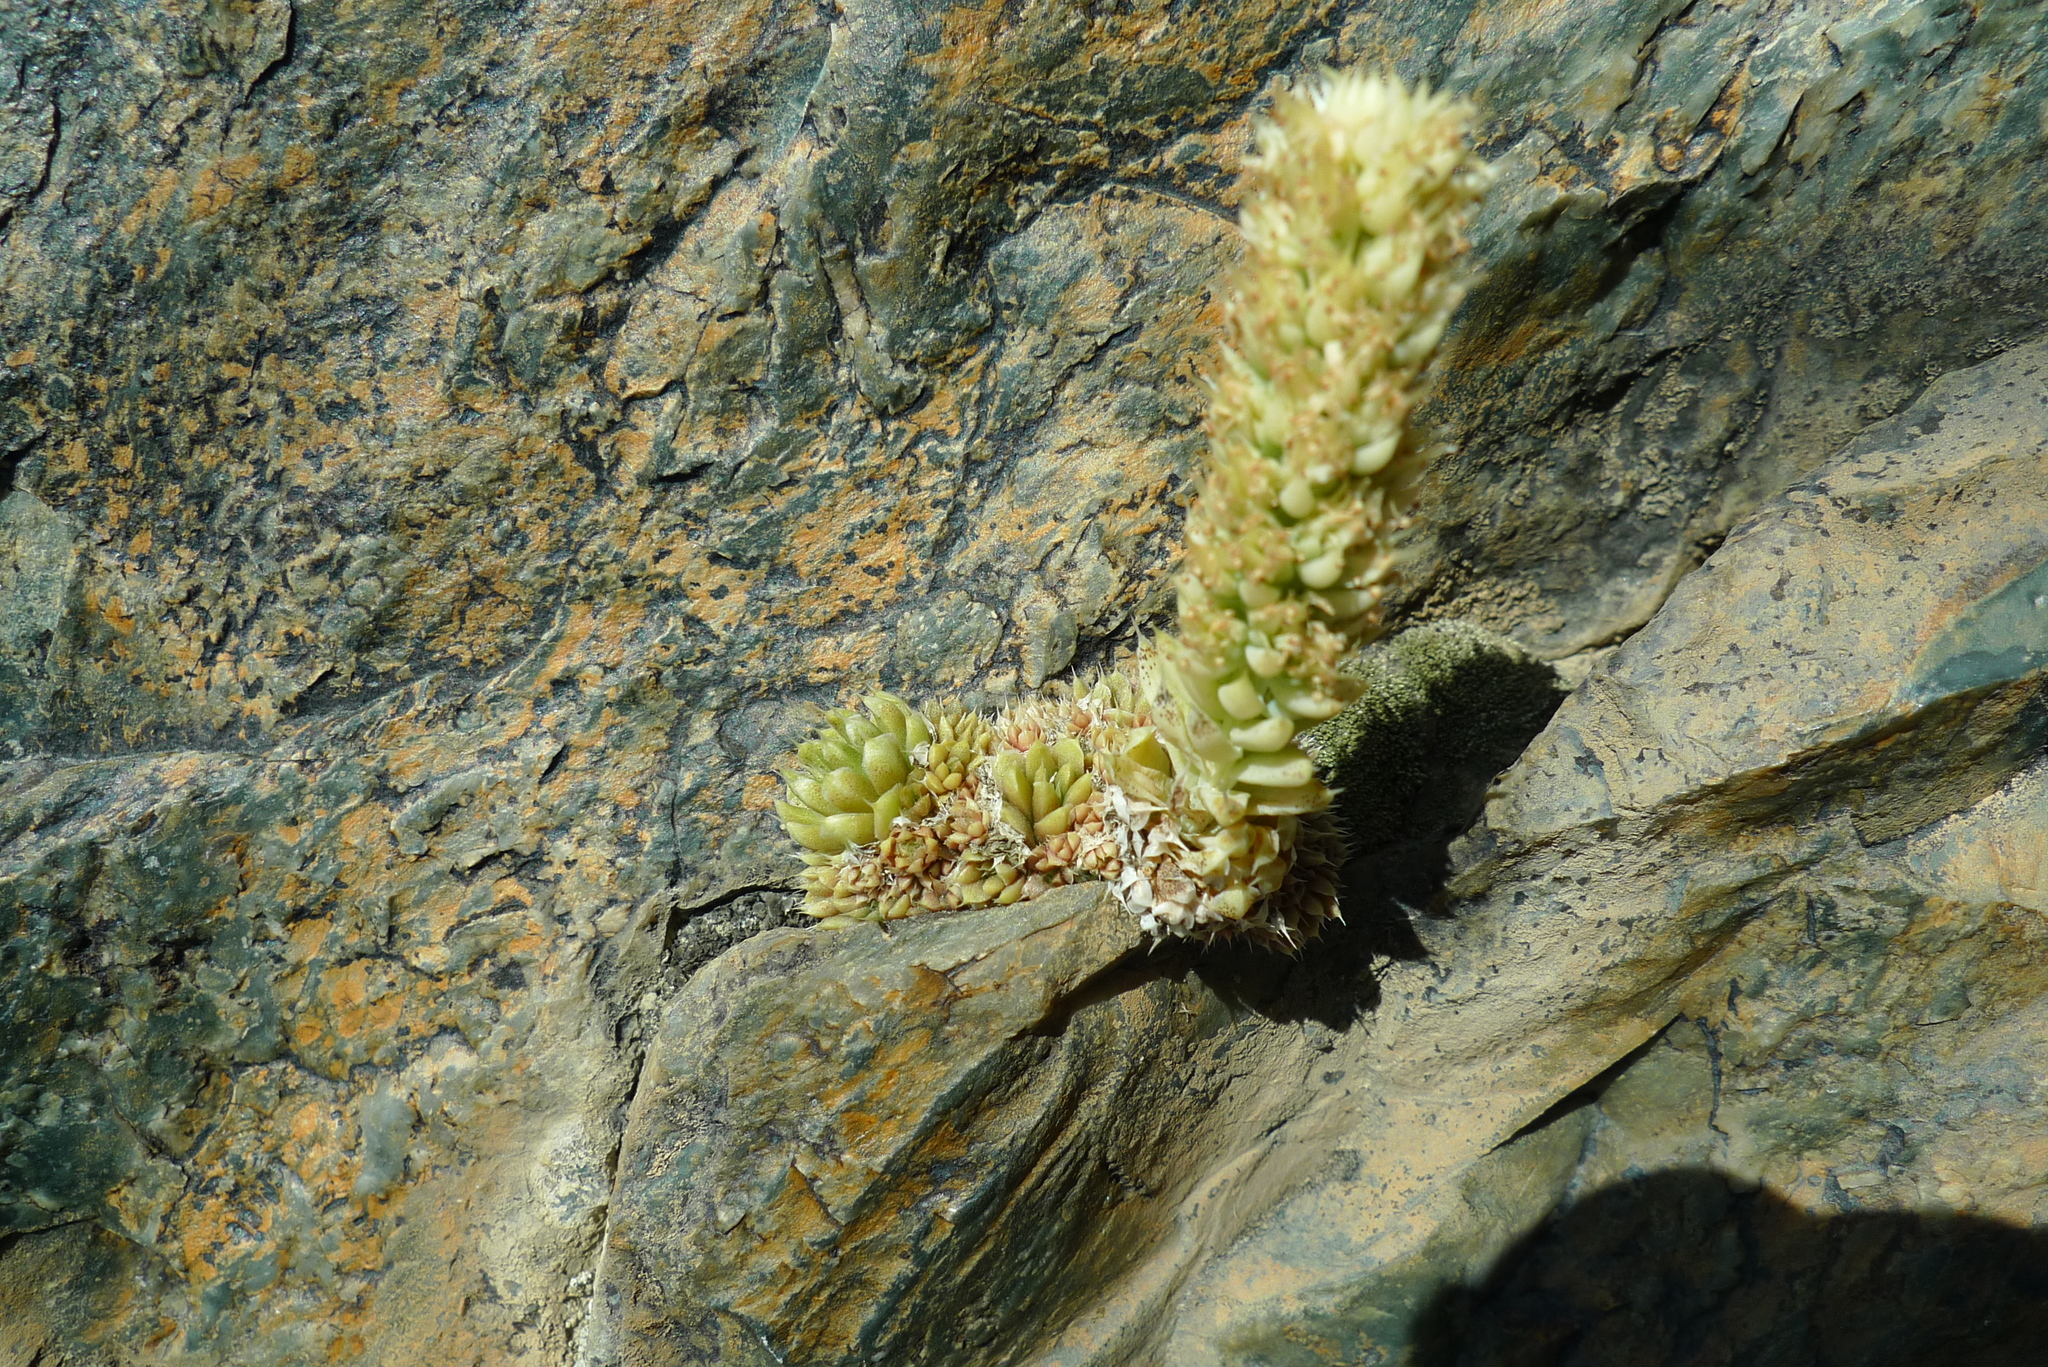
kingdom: Plantae
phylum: Tracheophyta
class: Magnoliopsida
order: Saxifragales
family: Crassulaceae
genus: Orostachys
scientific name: Orostachys spinosa
